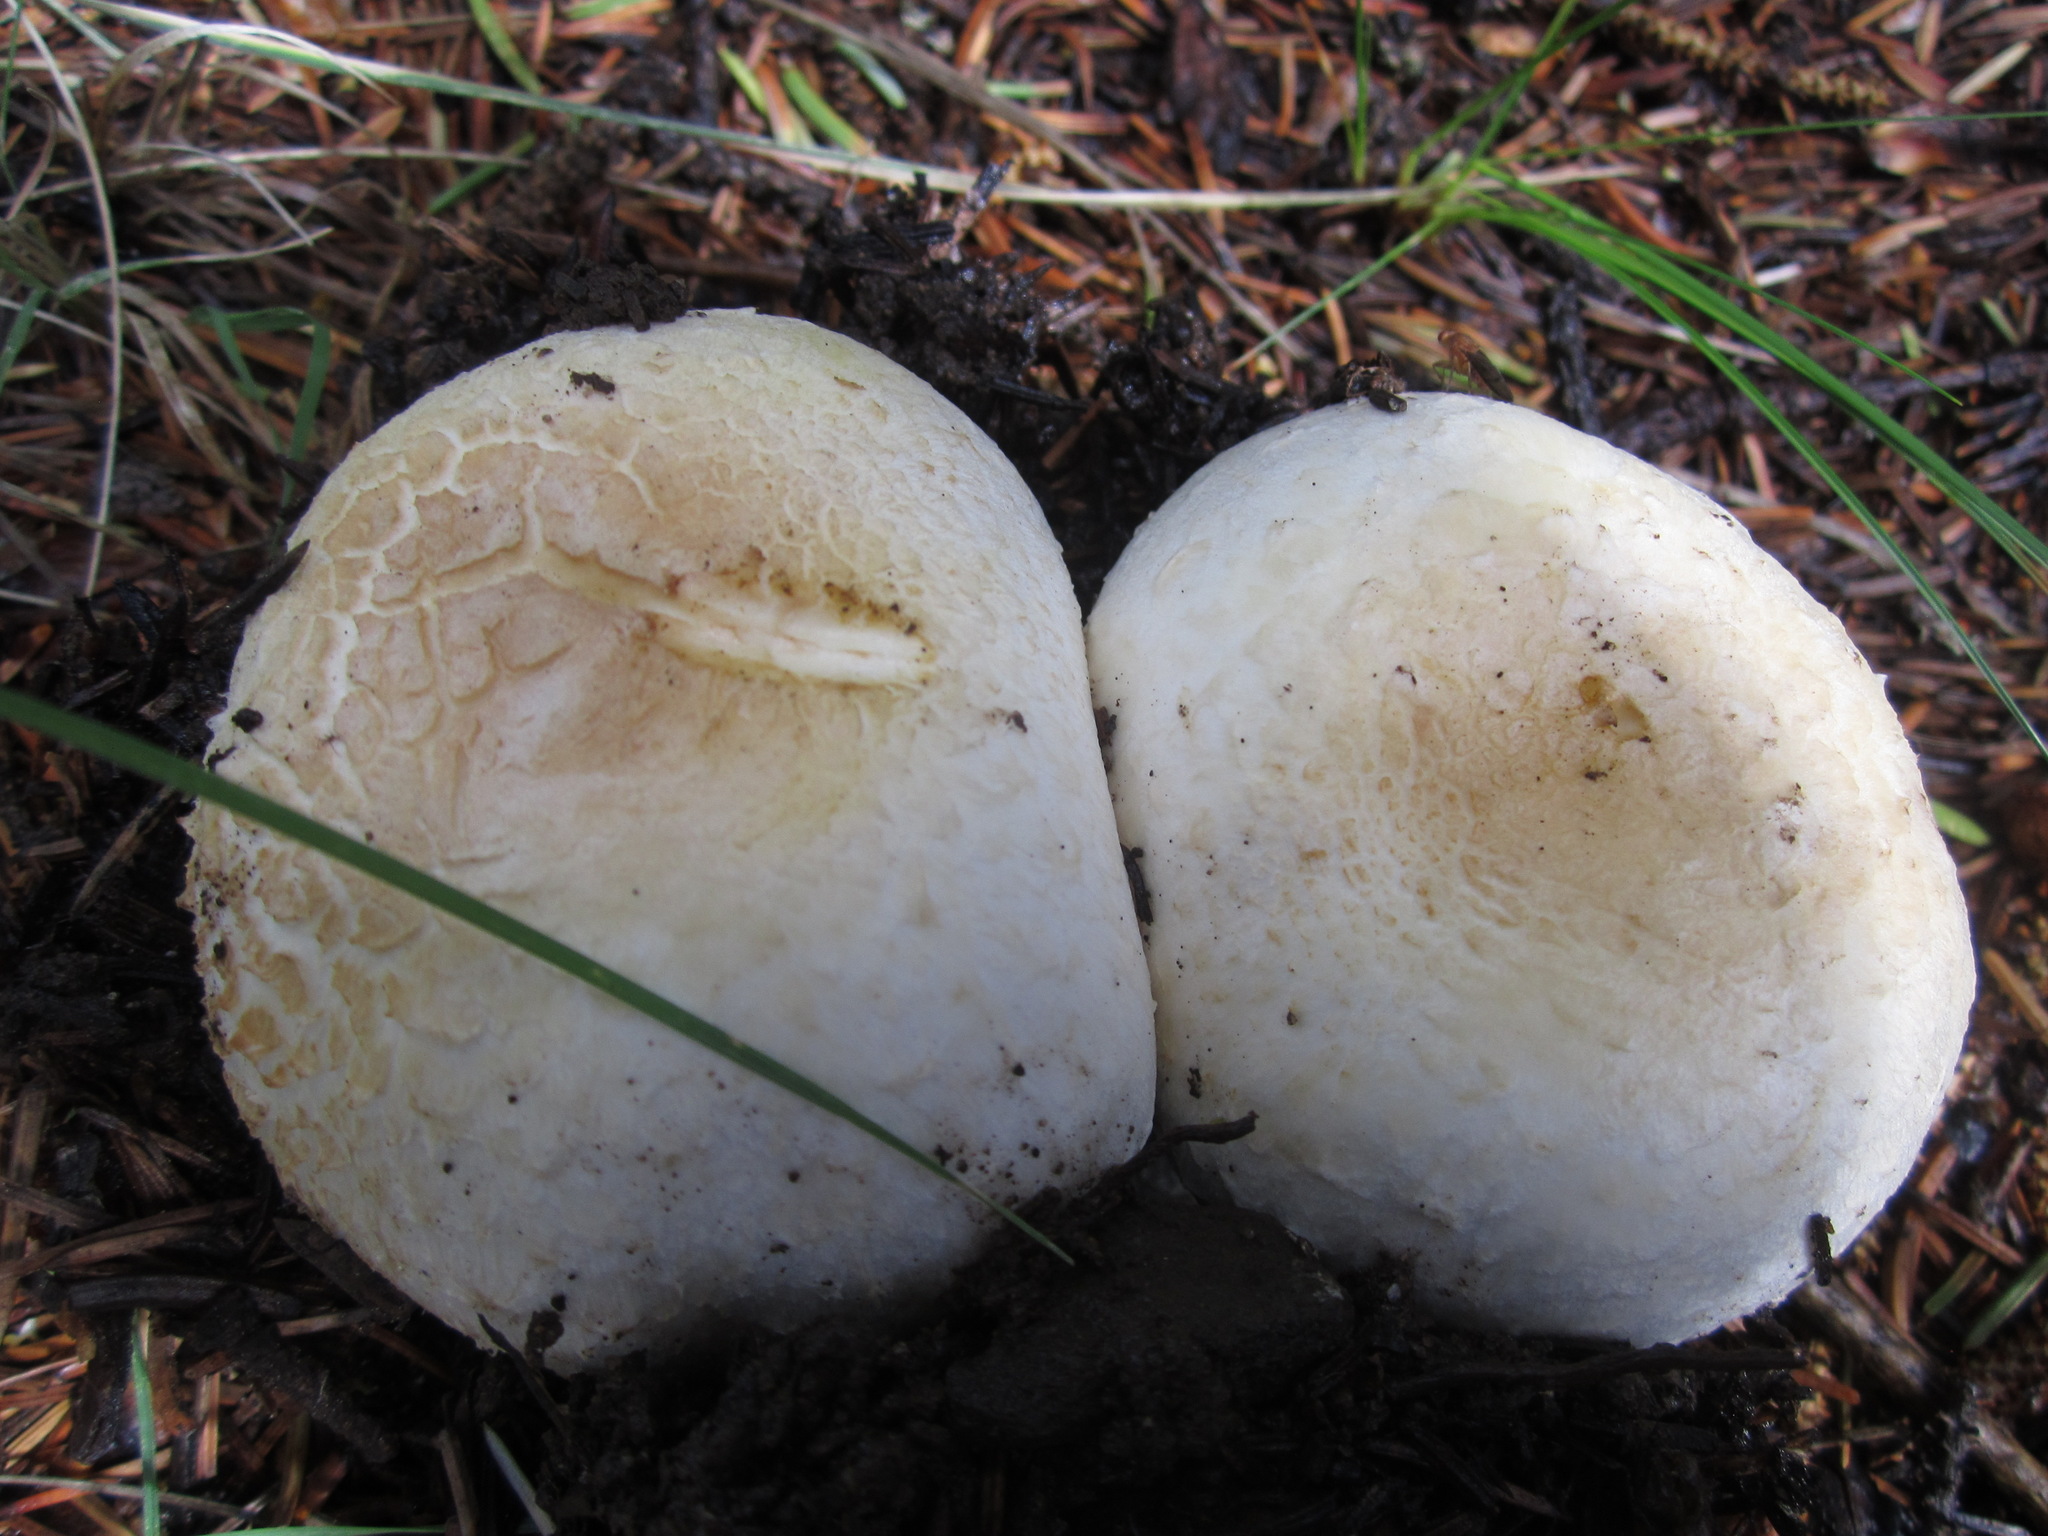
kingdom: Fungi
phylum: Basidiomycota
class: Agaricomycetes
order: Agaricales
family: Agaricaceae
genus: Agaricus
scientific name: Agaricus didymus
